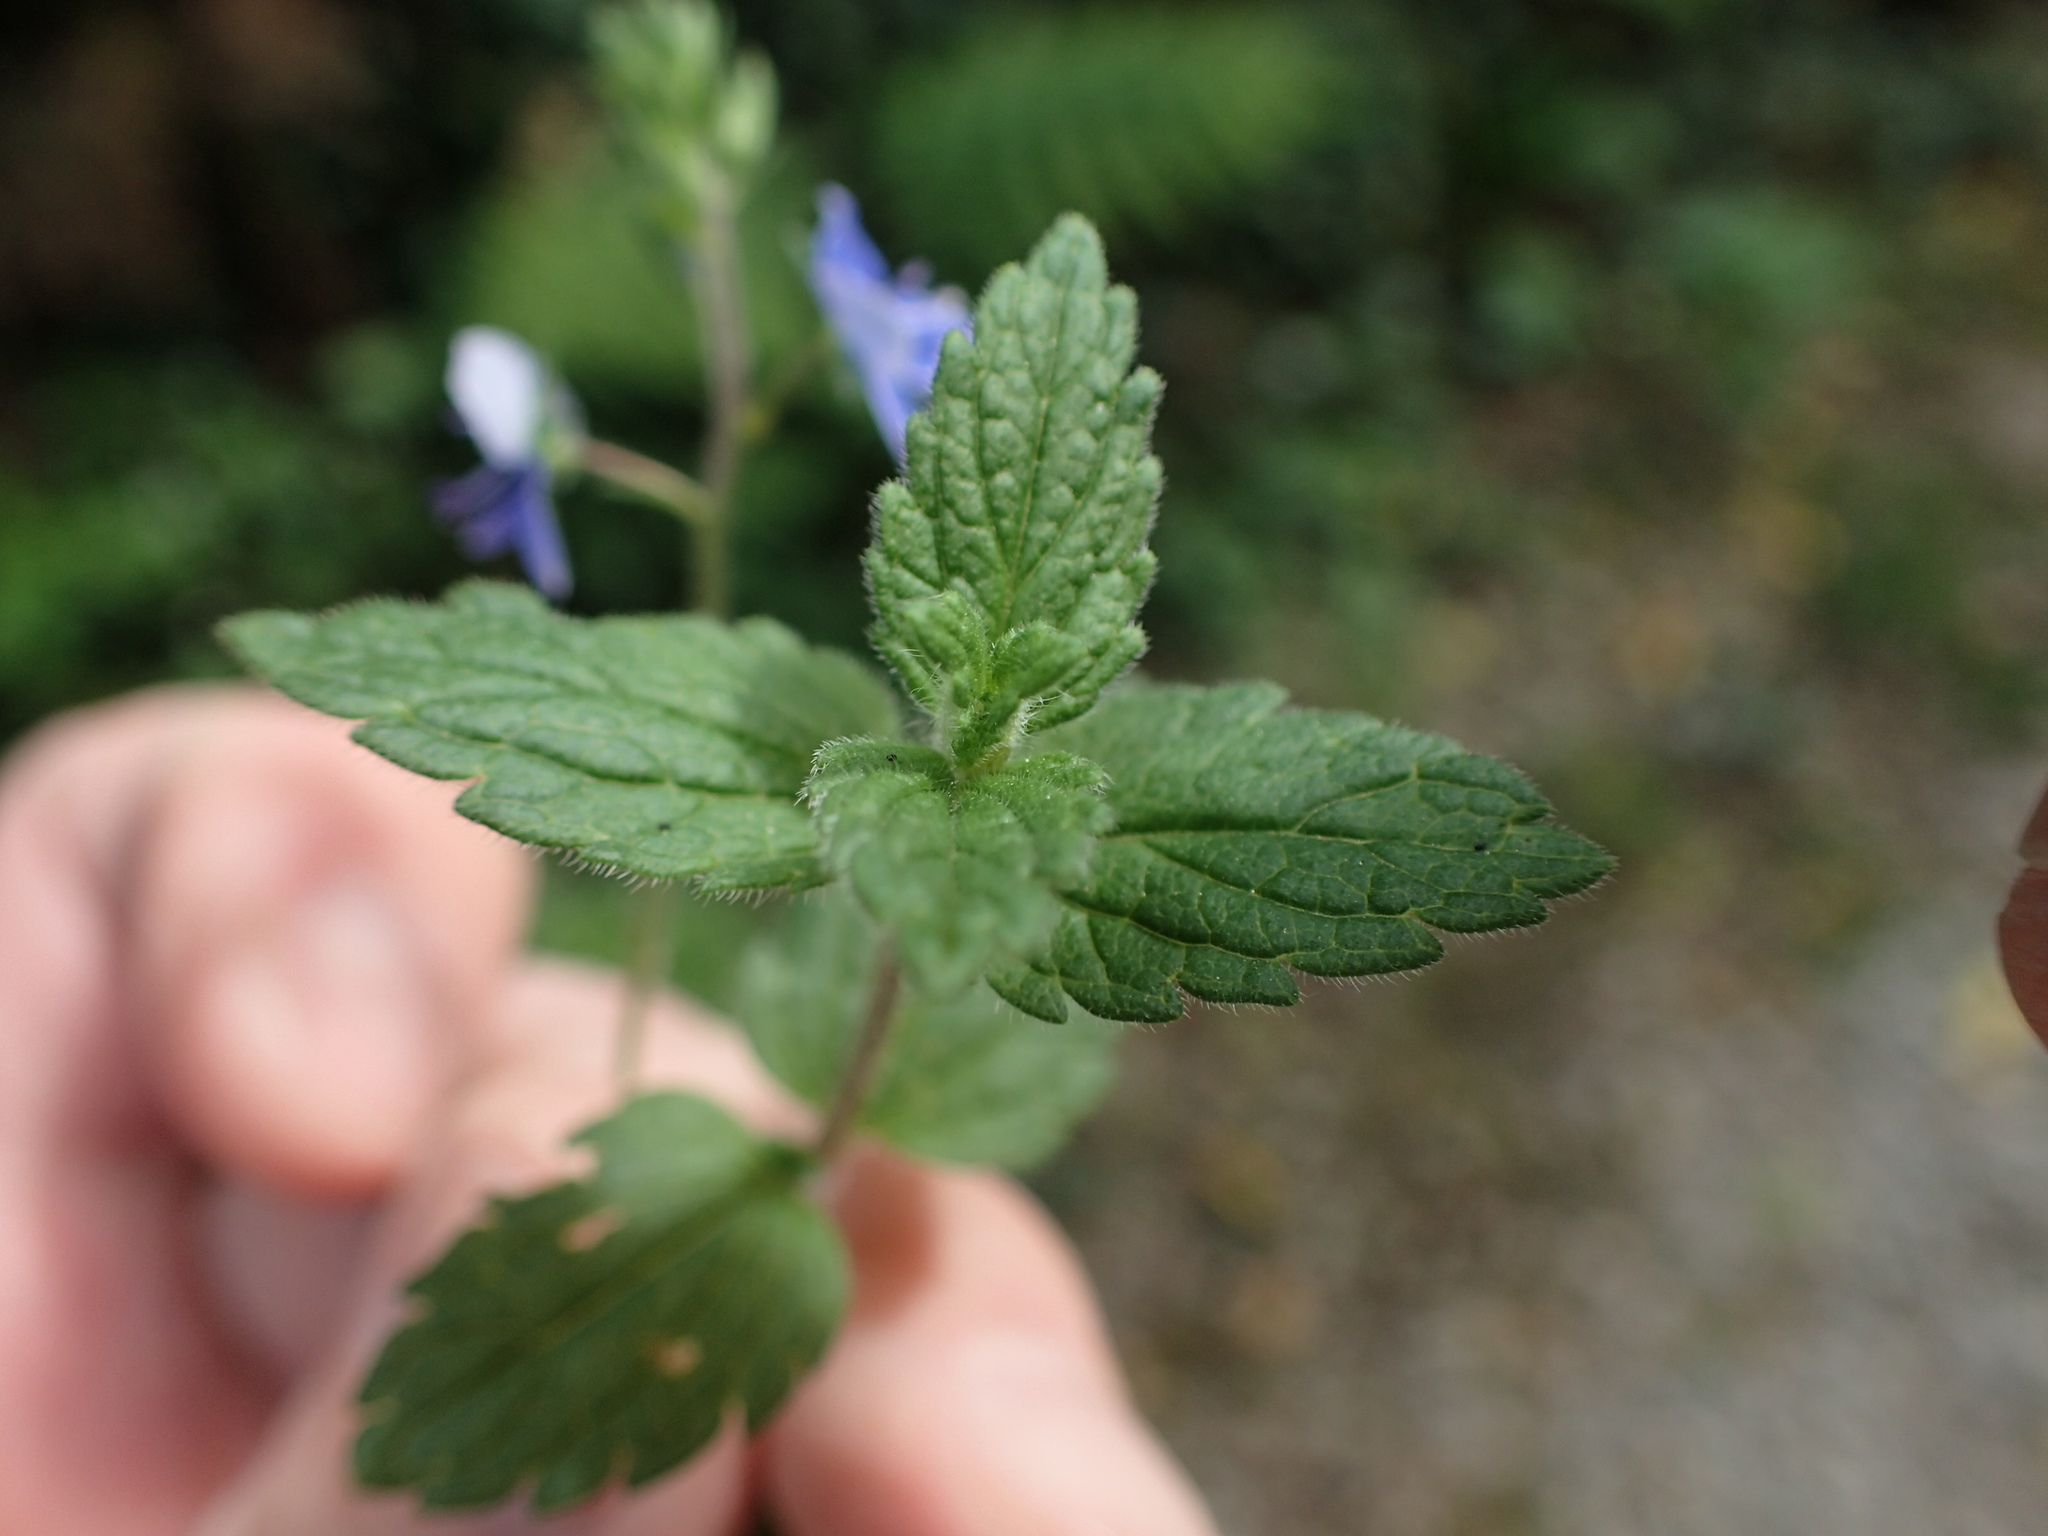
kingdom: Plantae
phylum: Tracheophyta
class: Magnoliopsida
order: Lamiales
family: Plantaginaceae
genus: Veronica
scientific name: Veronica chamaedrys
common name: Germander speedwell
